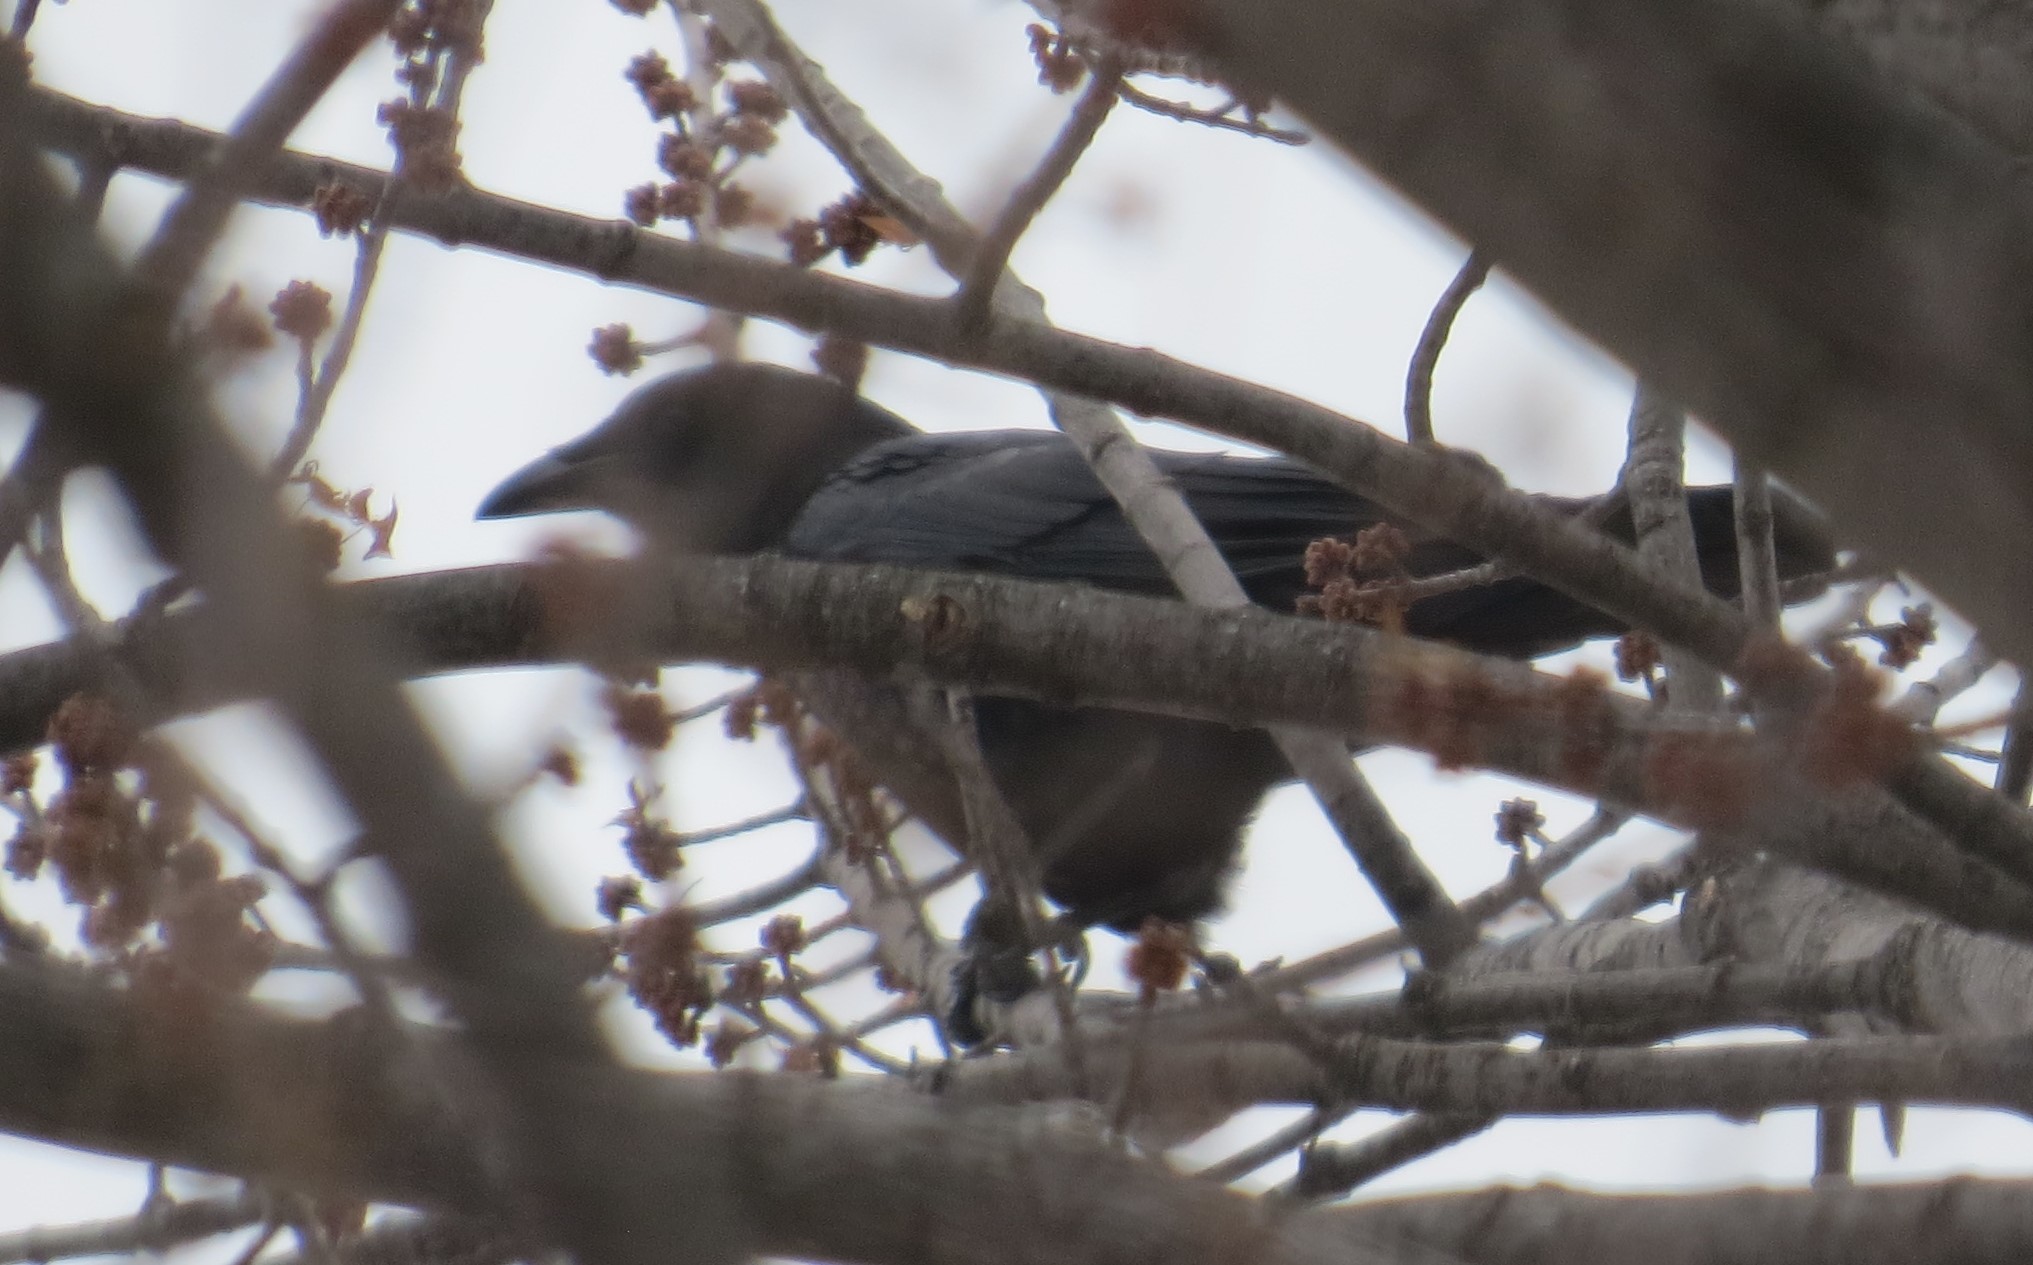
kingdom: Animalia
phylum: Chordata
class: Aves
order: Passeriformes
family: Corvidae
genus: Corvus
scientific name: Corvus brachyrhynchos
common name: American crow
